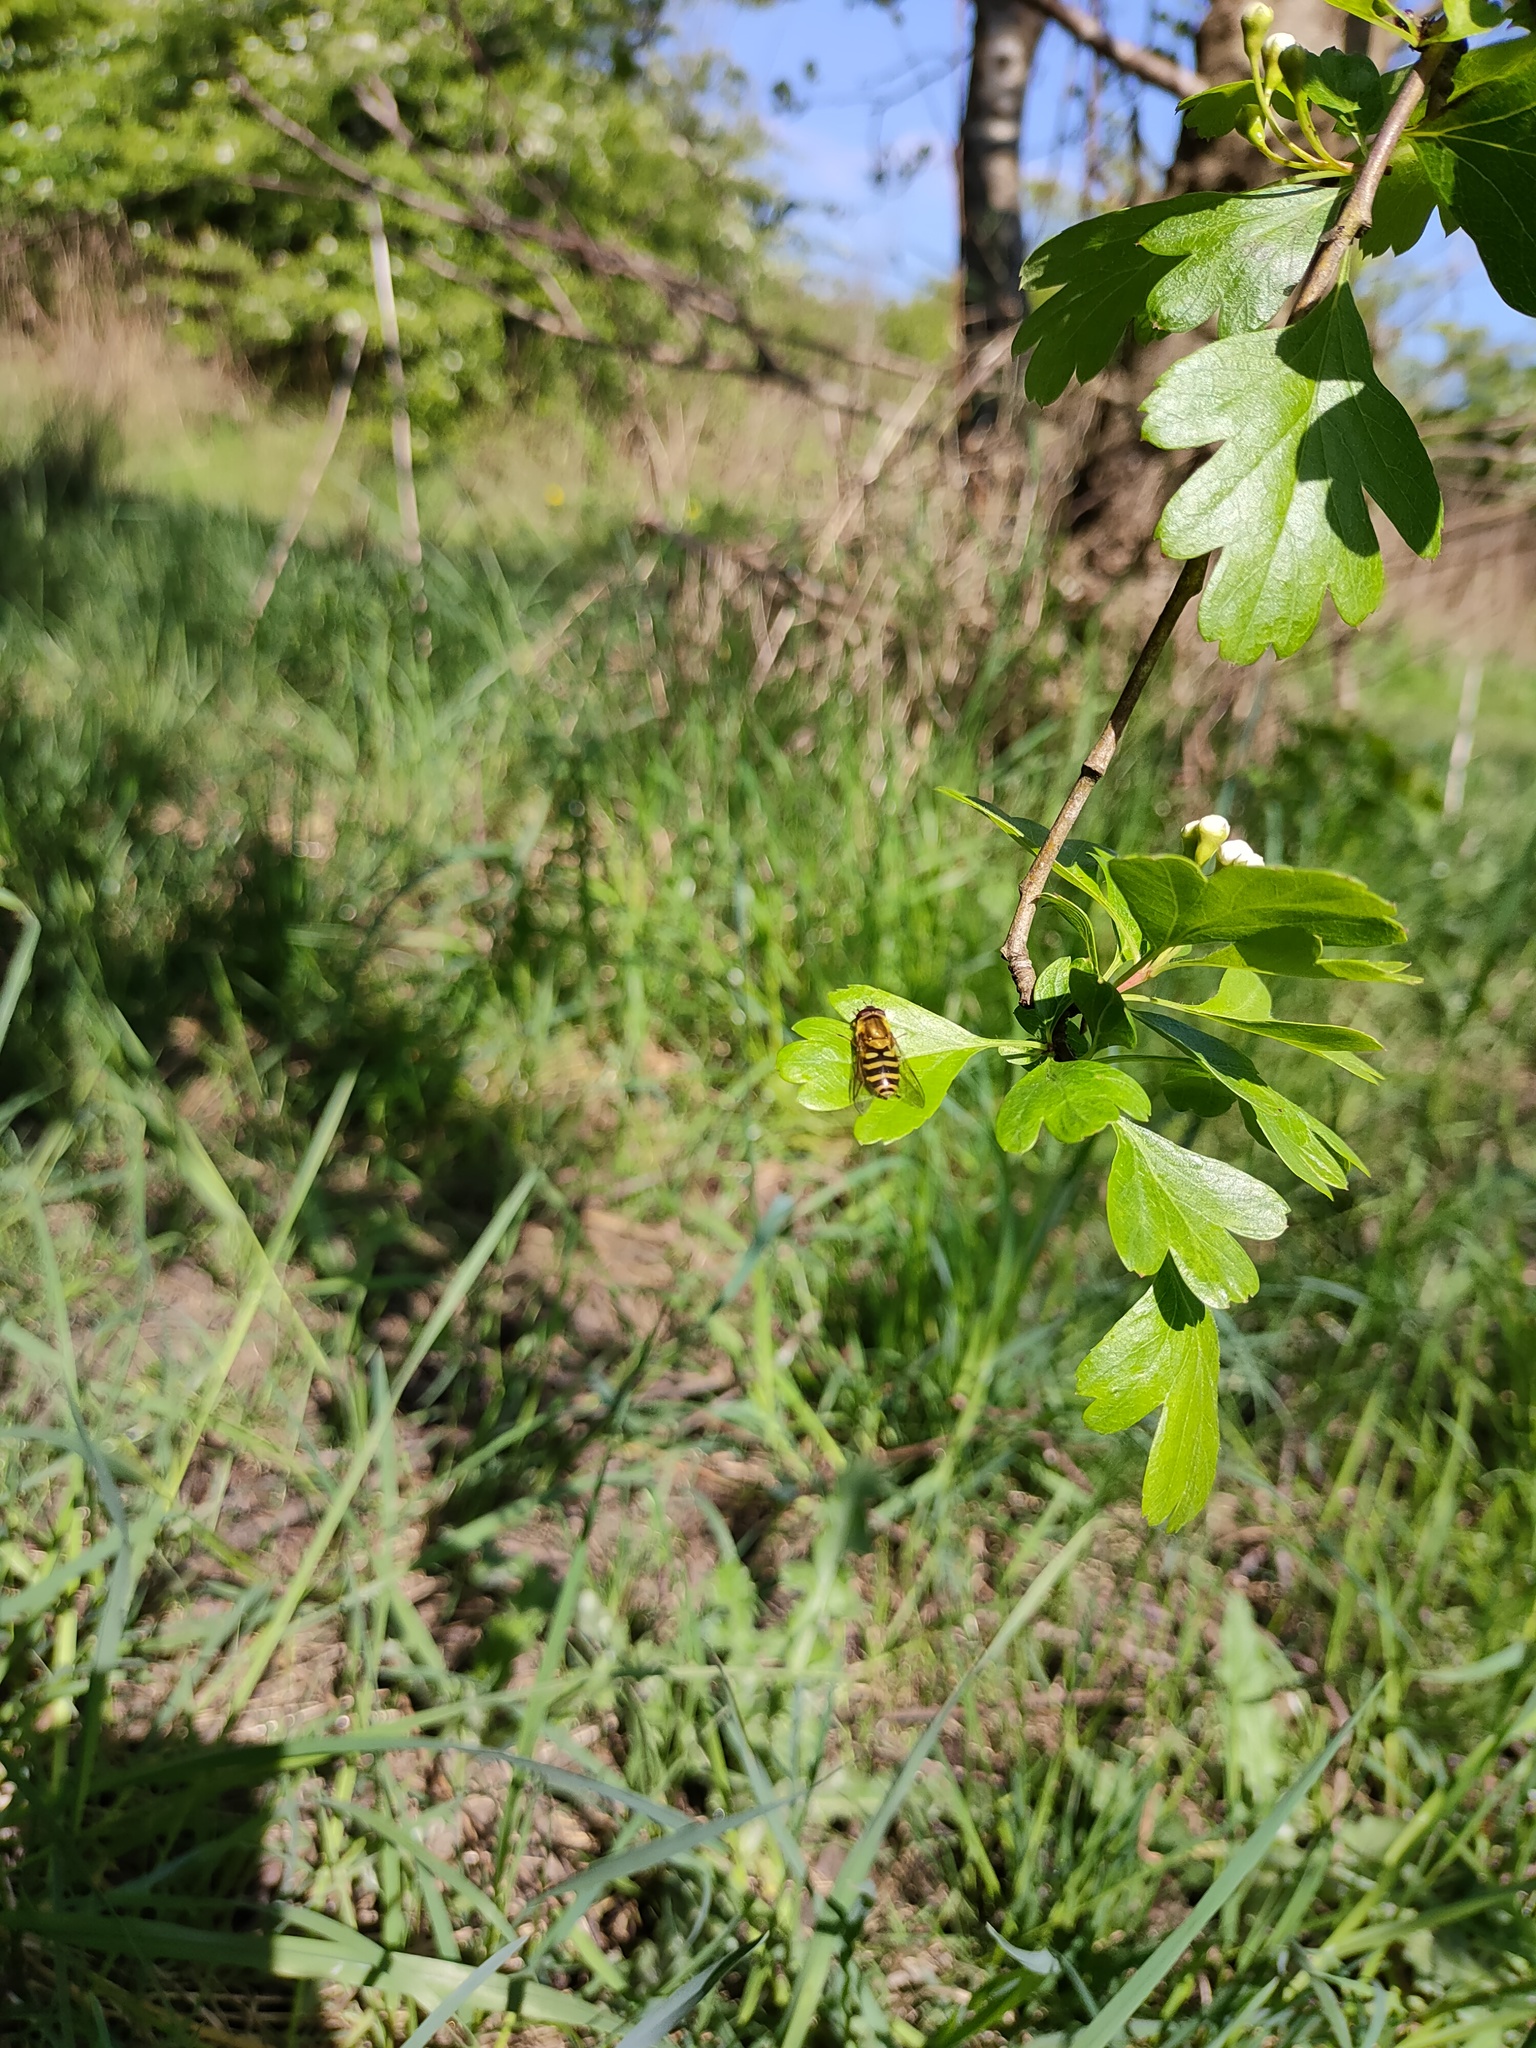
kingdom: Animalia
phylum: Arthropoda
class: Insecta
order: Diptera
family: Syrphidae
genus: Syrphus
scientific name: Syrphus
